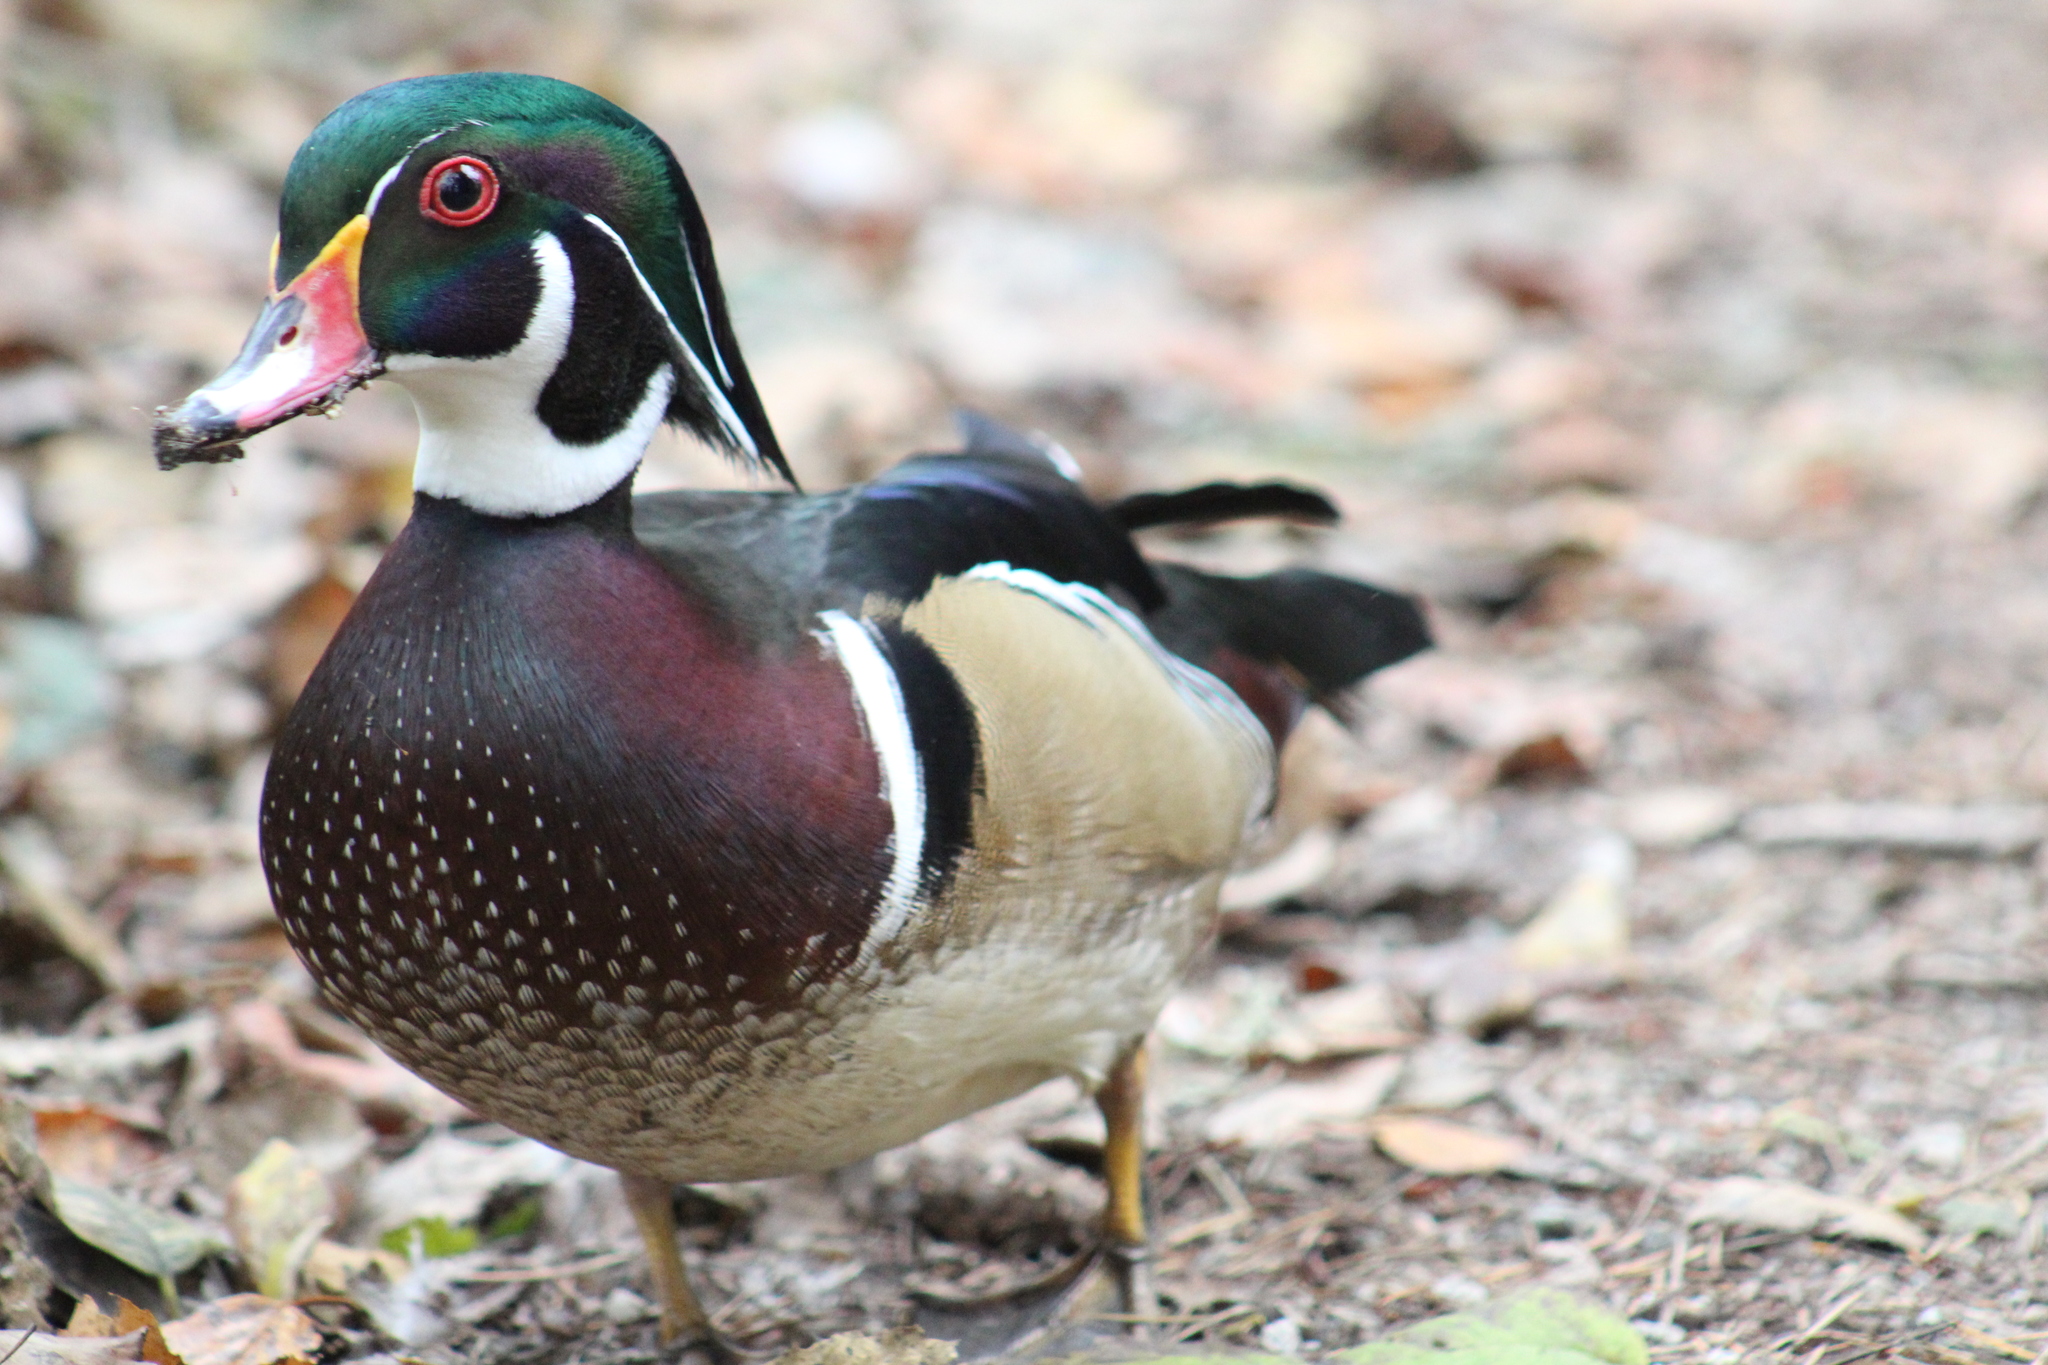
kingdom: Animalia
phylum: Chordata
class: Aves
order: Anseriformes
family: Anatidae
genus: Aix
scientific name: Aix sponsa
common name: Wood duck
